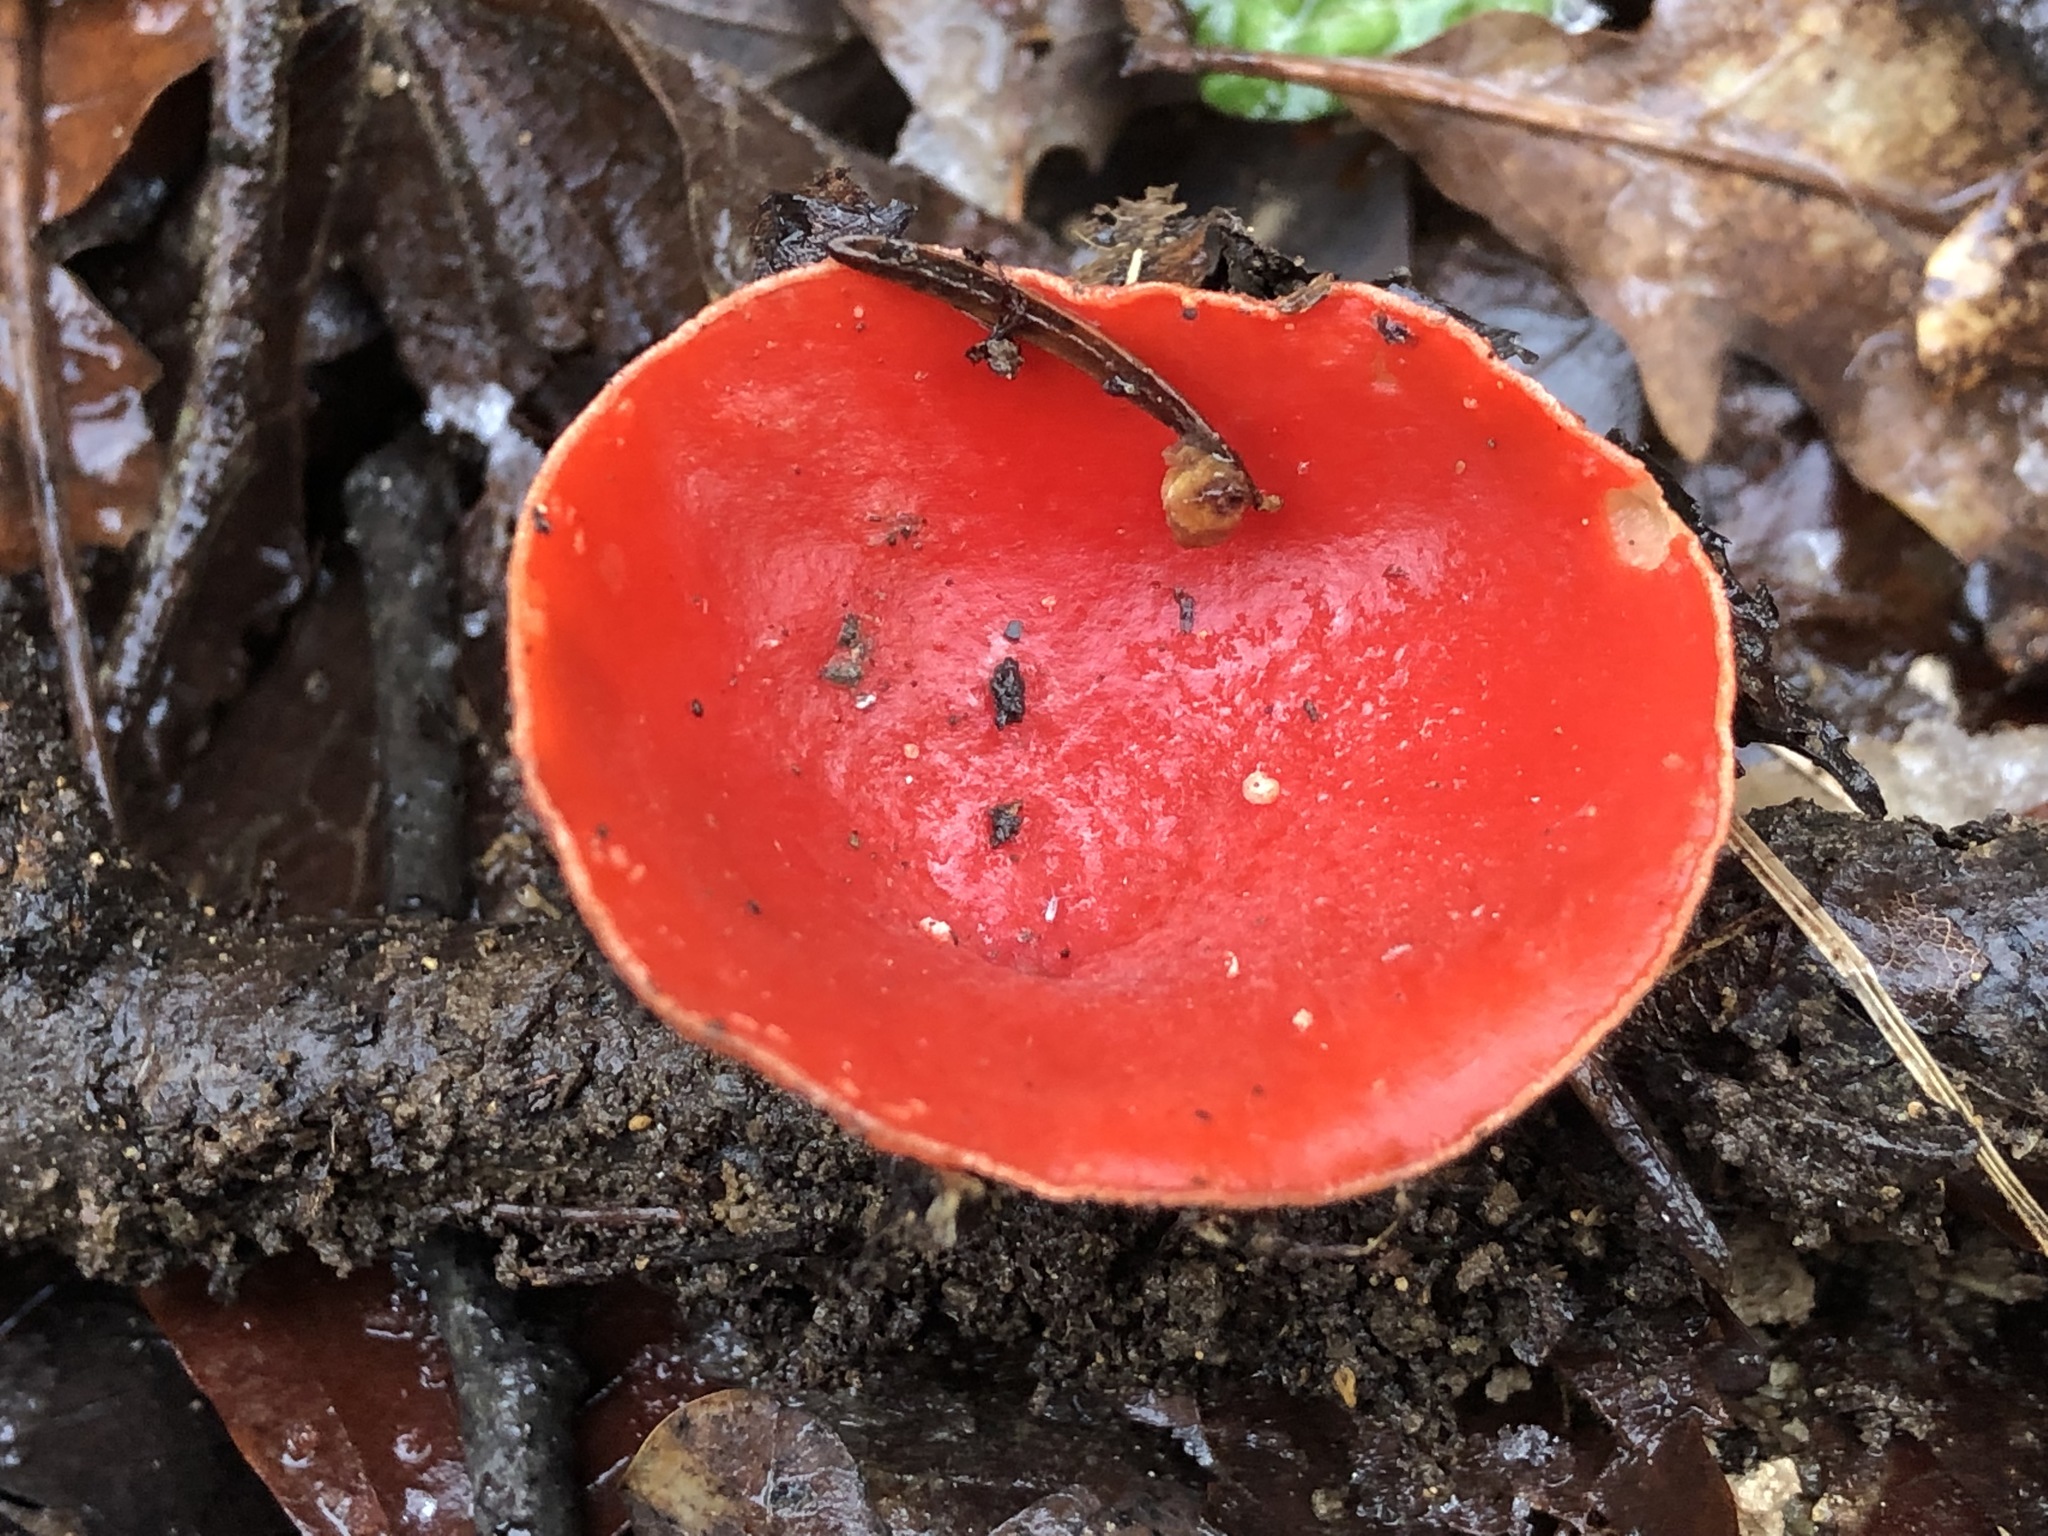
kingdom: Fungi
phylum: Ascomycota
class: Pezizomycetes
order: Pezizales
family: Sarcoscyphaceae
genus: Sarcoscypha
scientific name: Sarcoscypha
